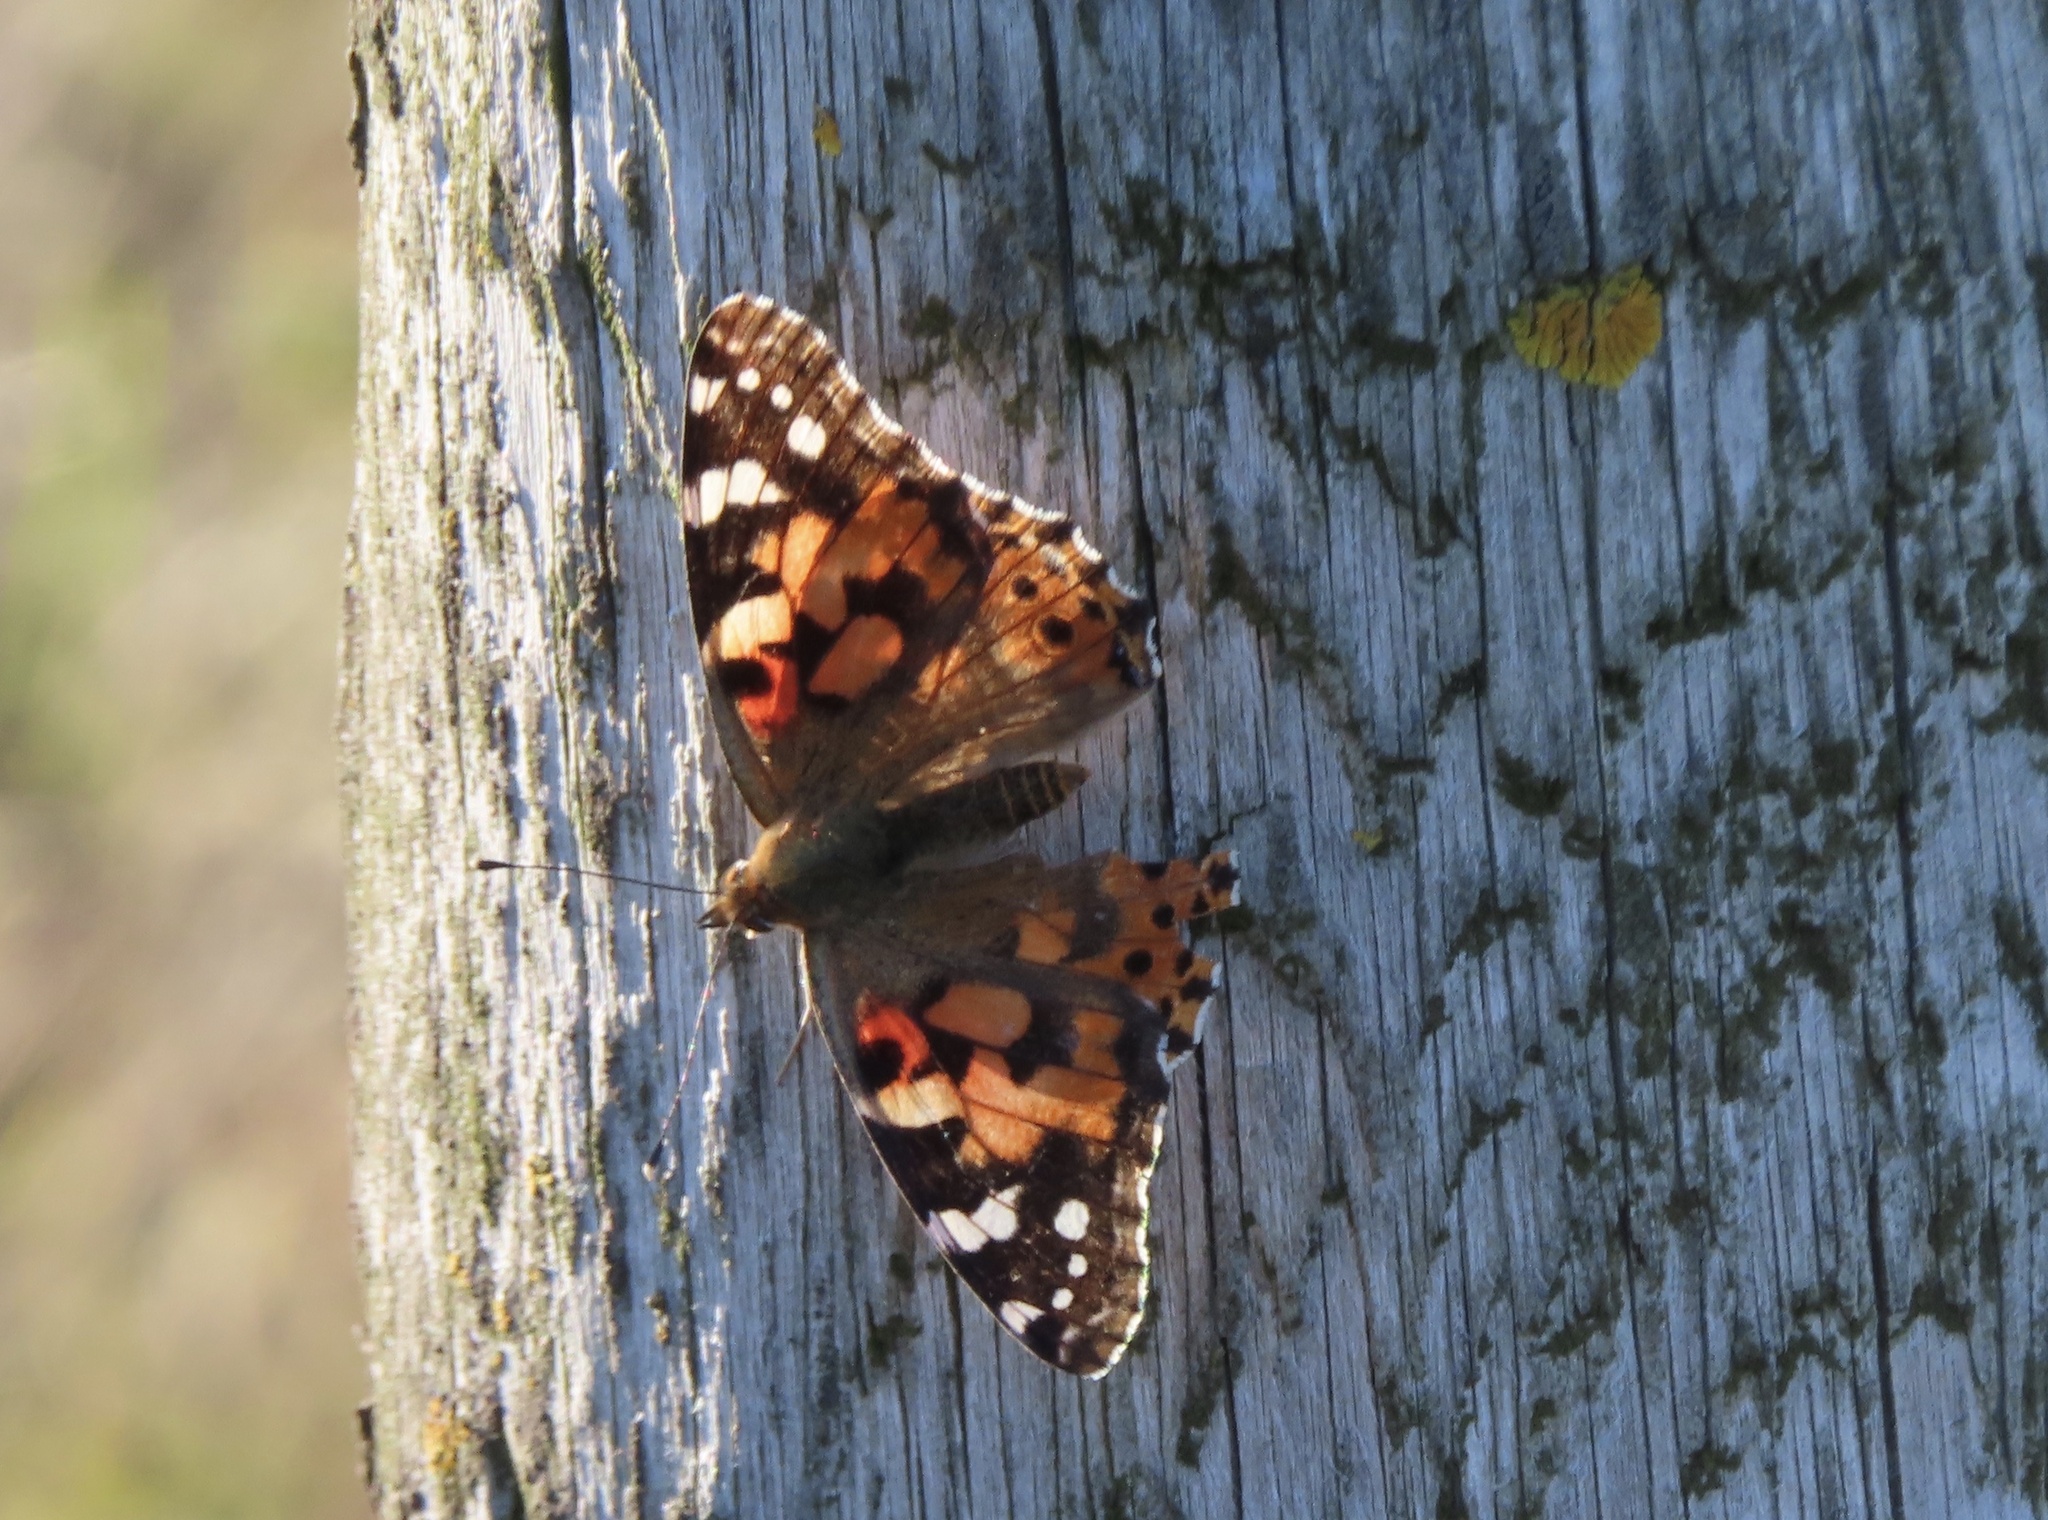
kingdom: Animalia
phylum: Arthropoda
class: Insecta
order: Lepidoptera
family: Nymphalidae
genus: Vanessa
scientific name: Vanessa cardui
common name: Painted lady
